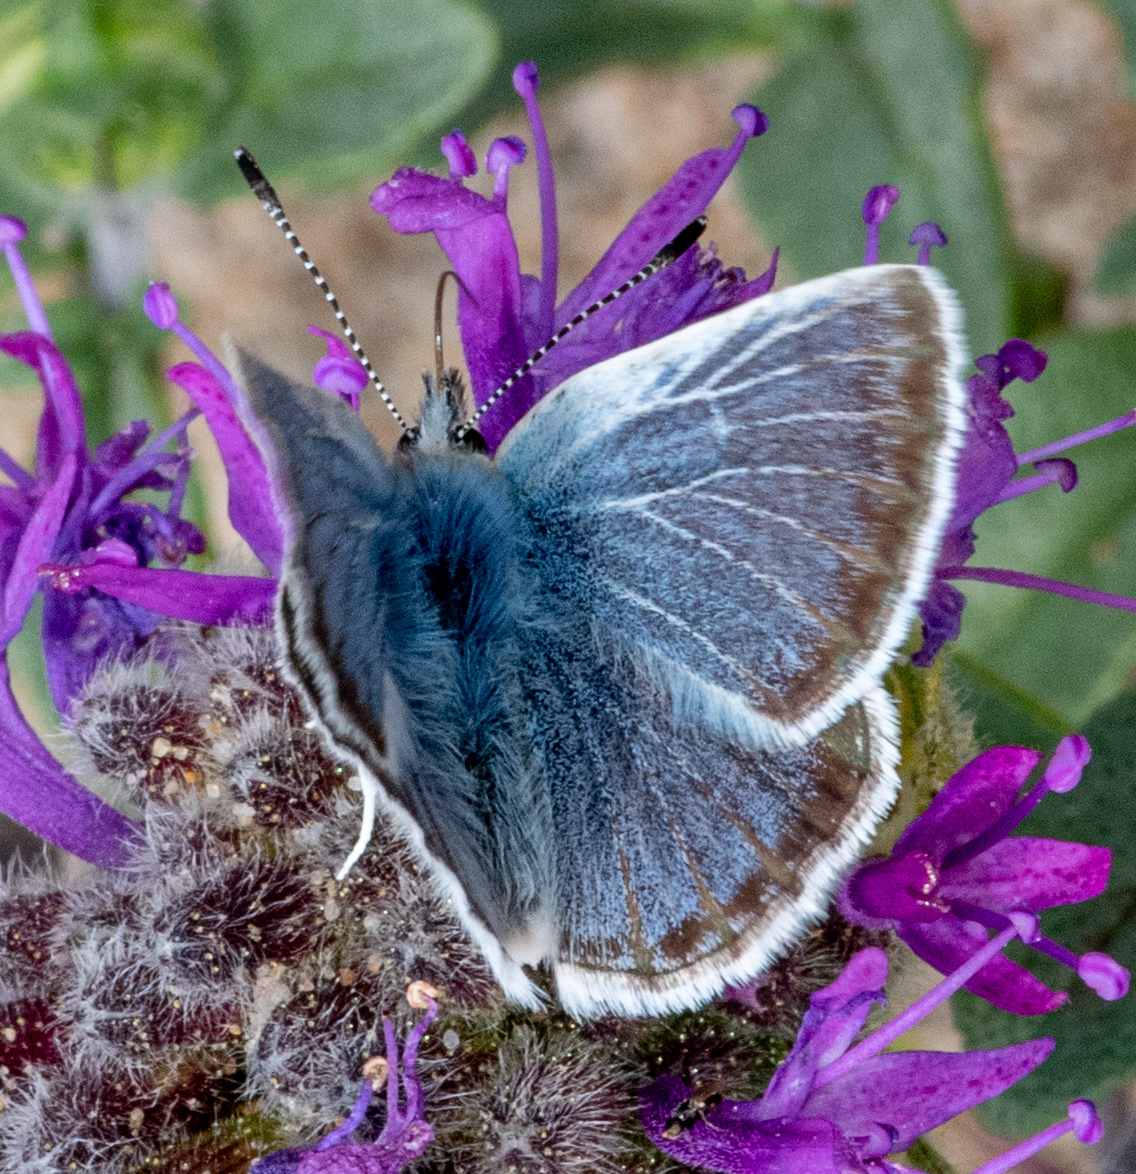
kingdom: Animalia
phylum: Arthropoda
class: Insecta
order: Lepidoptera
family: Lycaenidae
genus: Icaricia
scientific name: Icaricia icarioides
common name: Boisduval's blue
